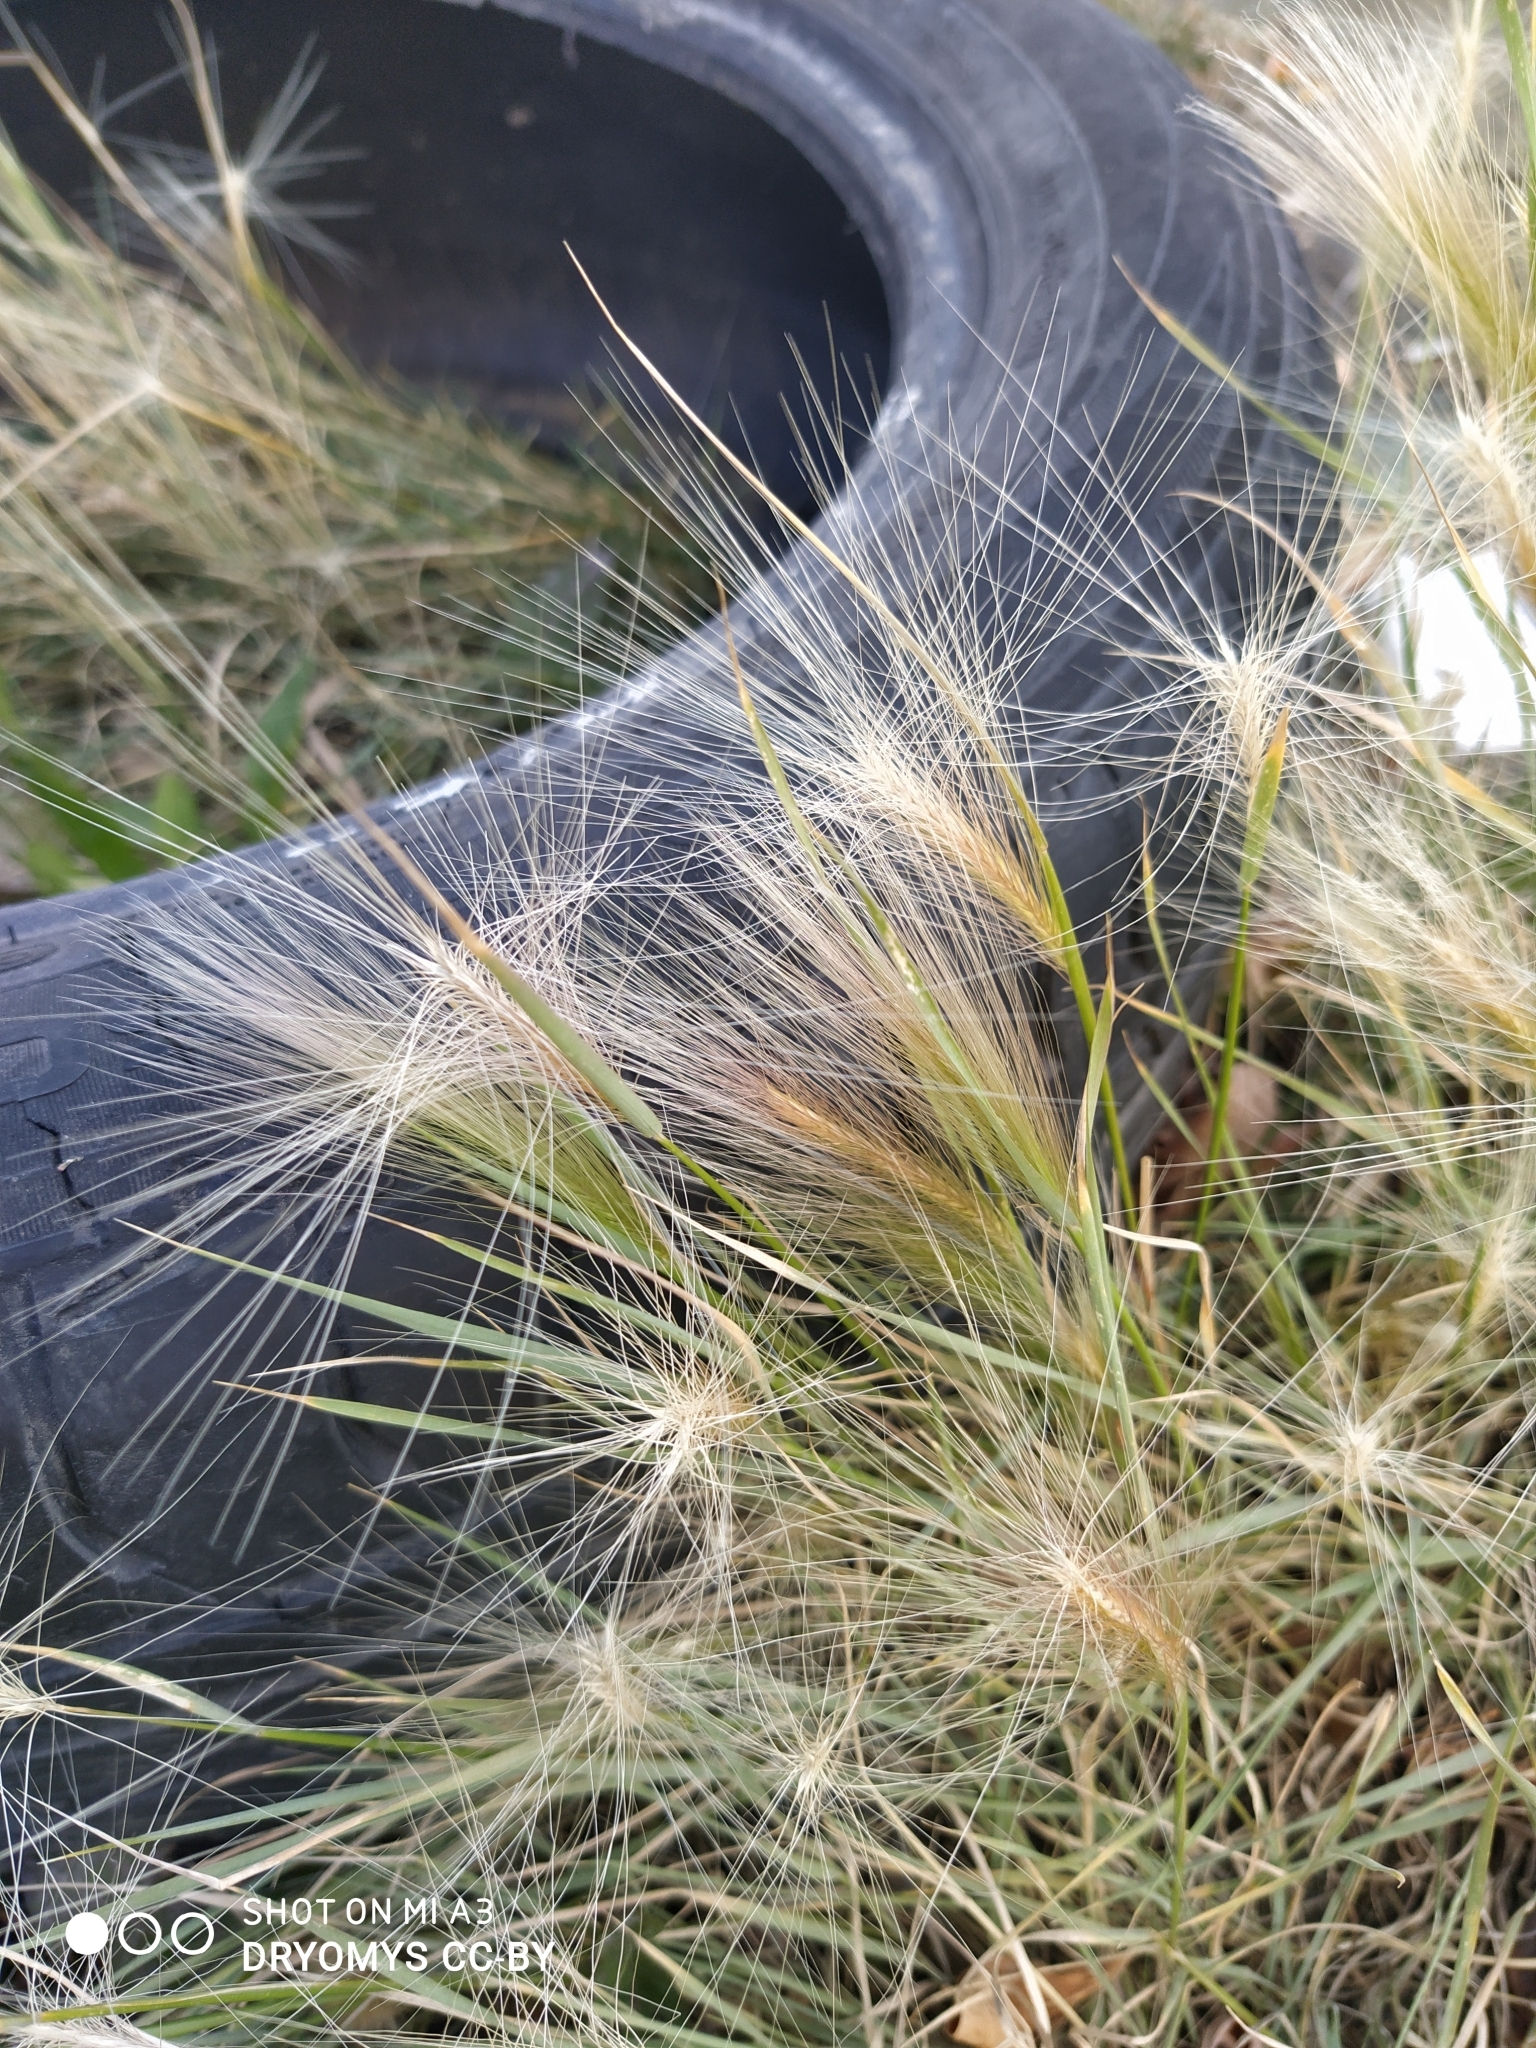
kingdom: Plantae
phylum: Tracheophyta
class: Liliopsida
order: Poales
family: Poaceae
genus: Hordeum
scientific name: Hordeum jubatum
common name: Foxtail barley
